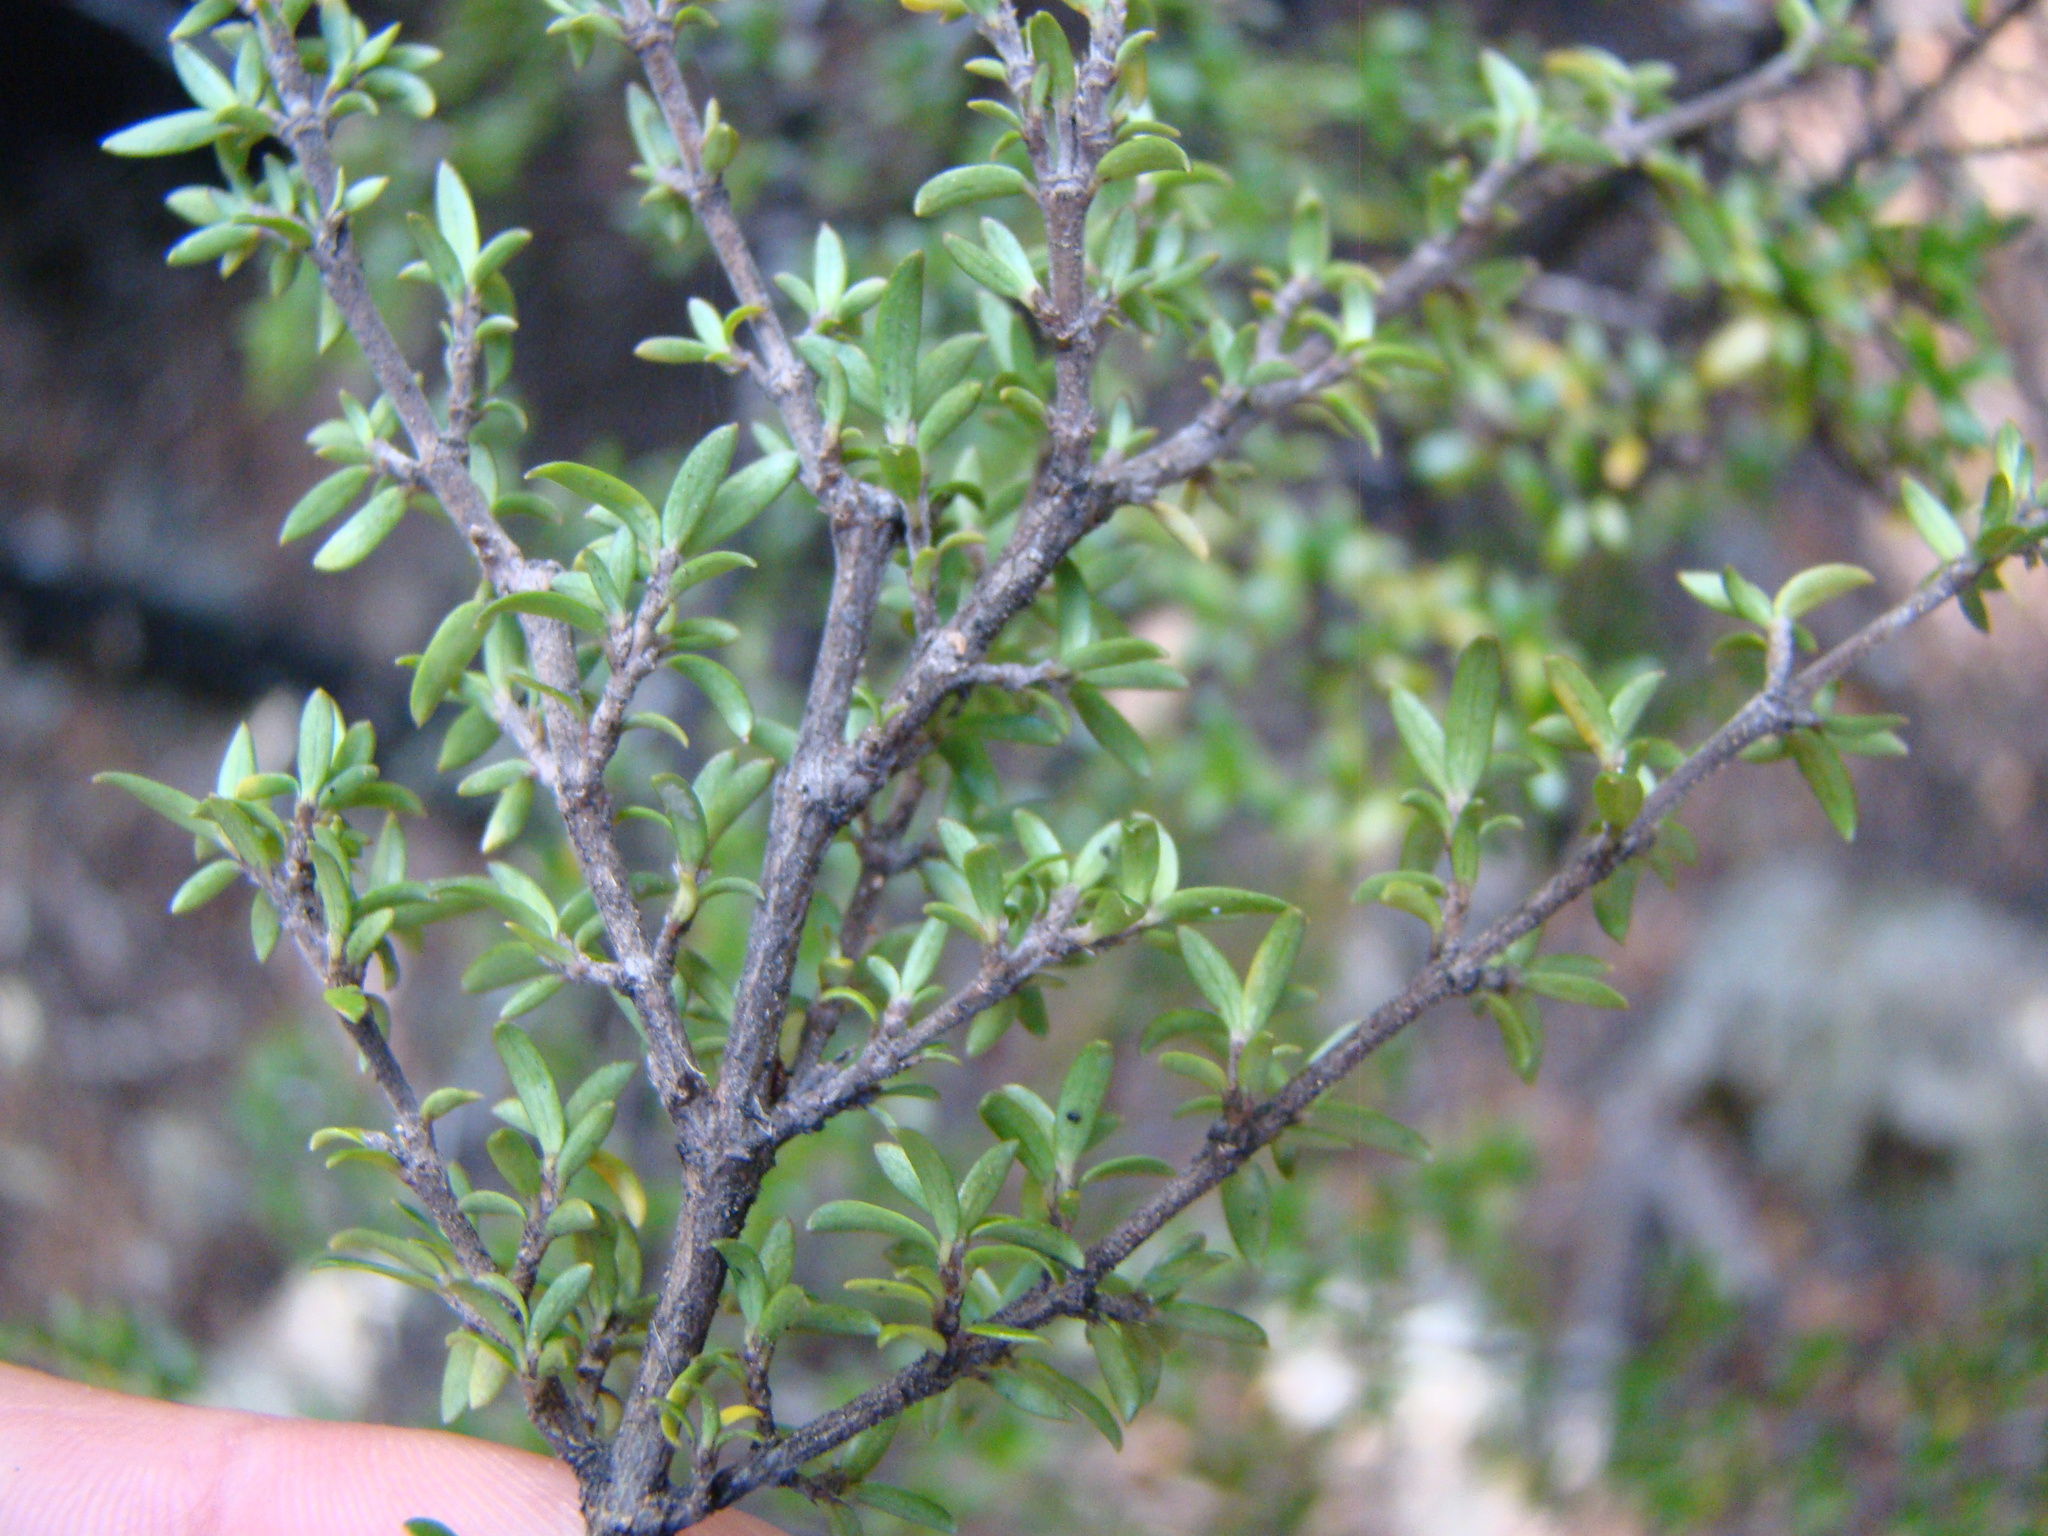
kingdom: Plantae
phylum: Tracheophyta
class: Magnoliopsida
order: Gentianales
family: Rubiaceae
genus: Coprosma
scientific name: Coprosma pseudocuneata
